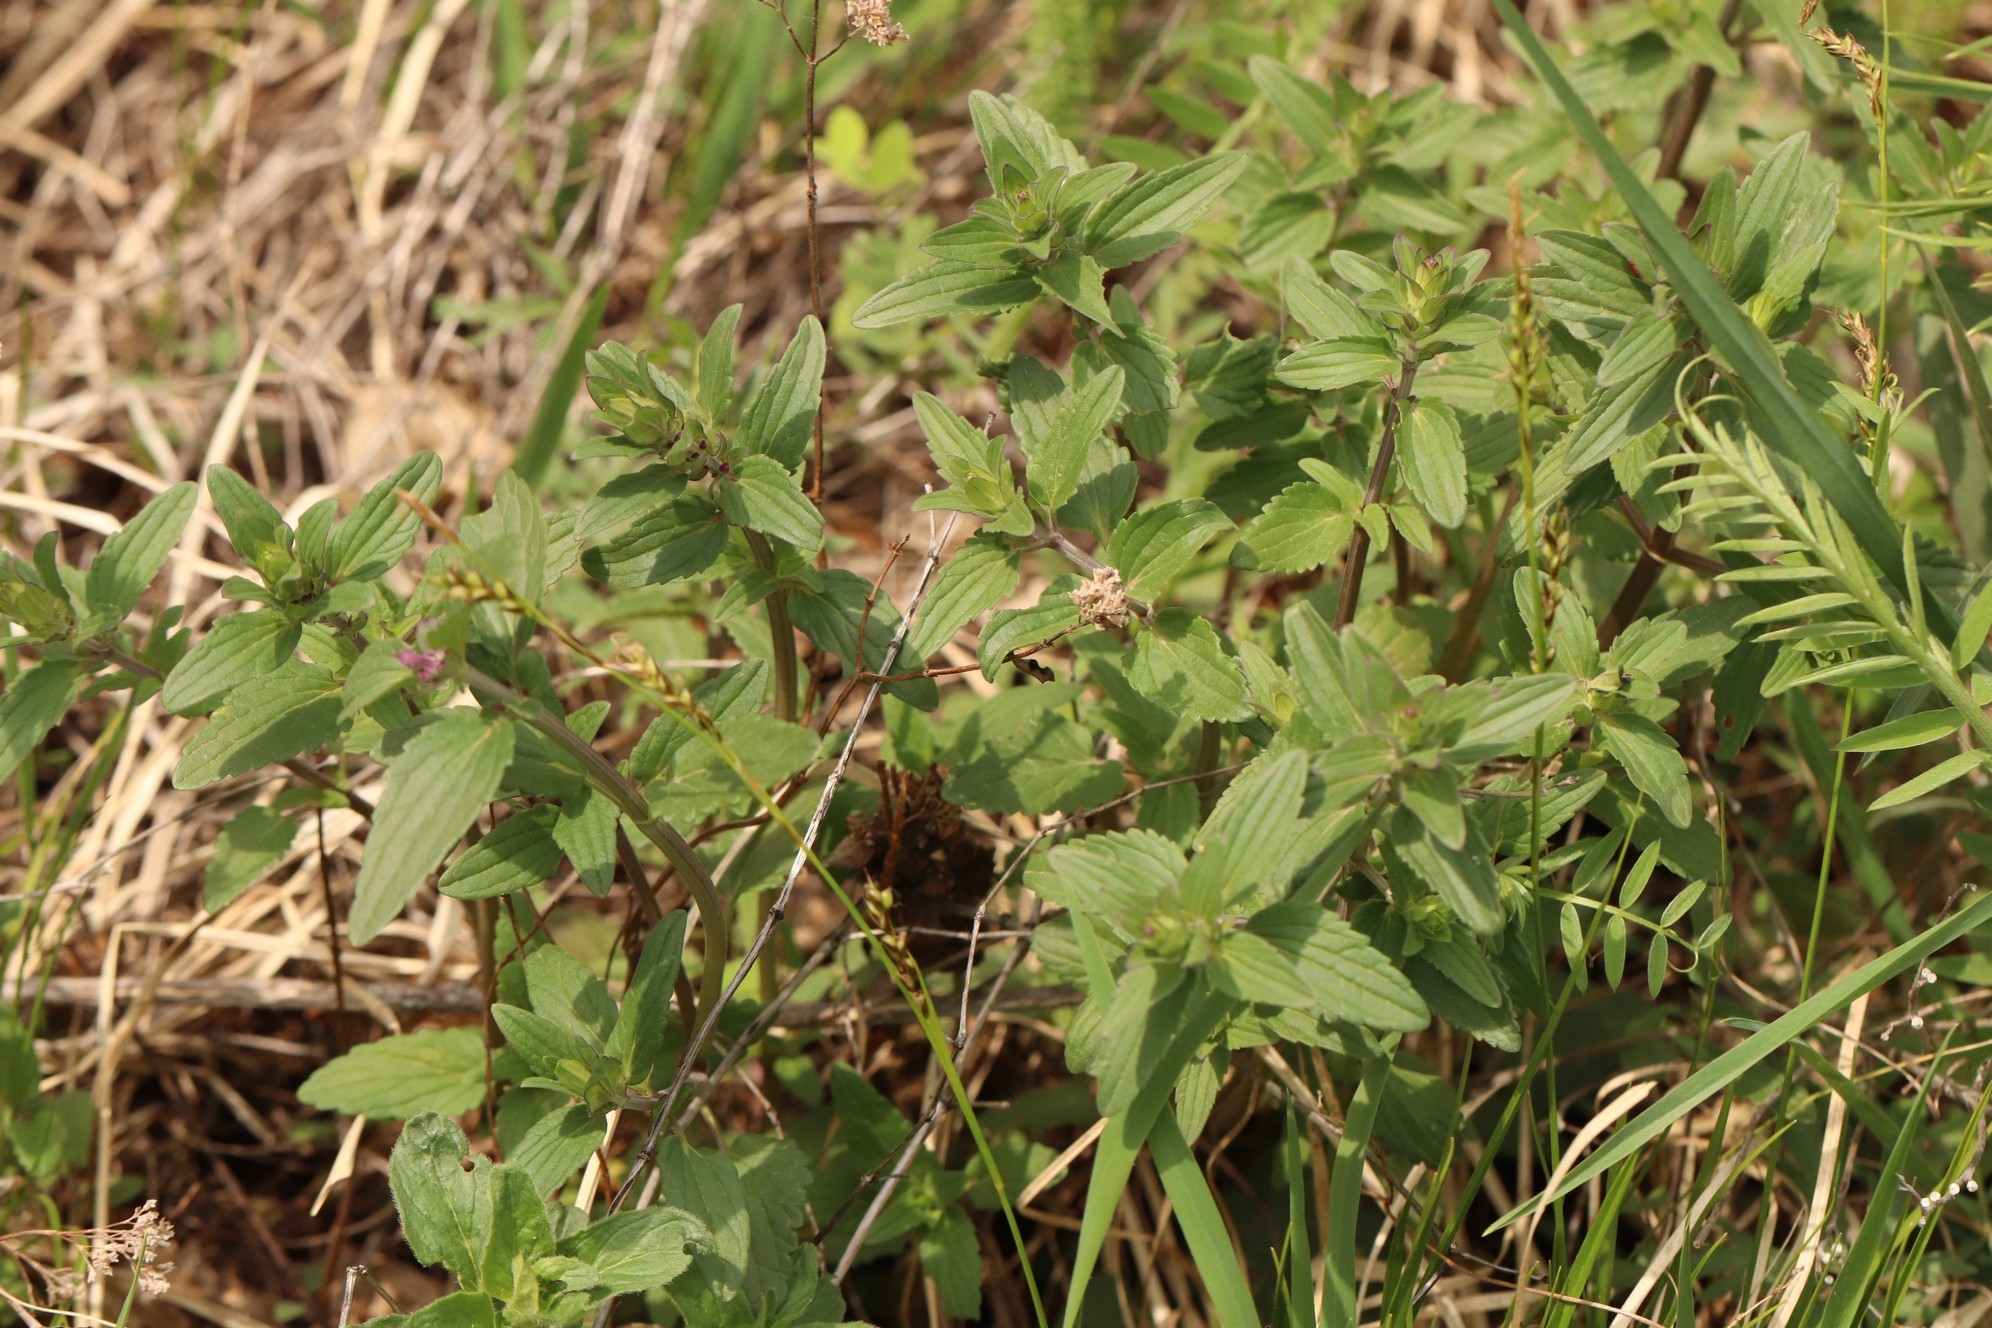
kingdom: Plantae
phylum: Tracheophyta
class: Magnoliopsida
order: Lamiales
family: Lamiaceae
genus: Dracocephalum
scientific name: Dracocephalum thymiflorum
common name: Thymeleaf dragonhead
